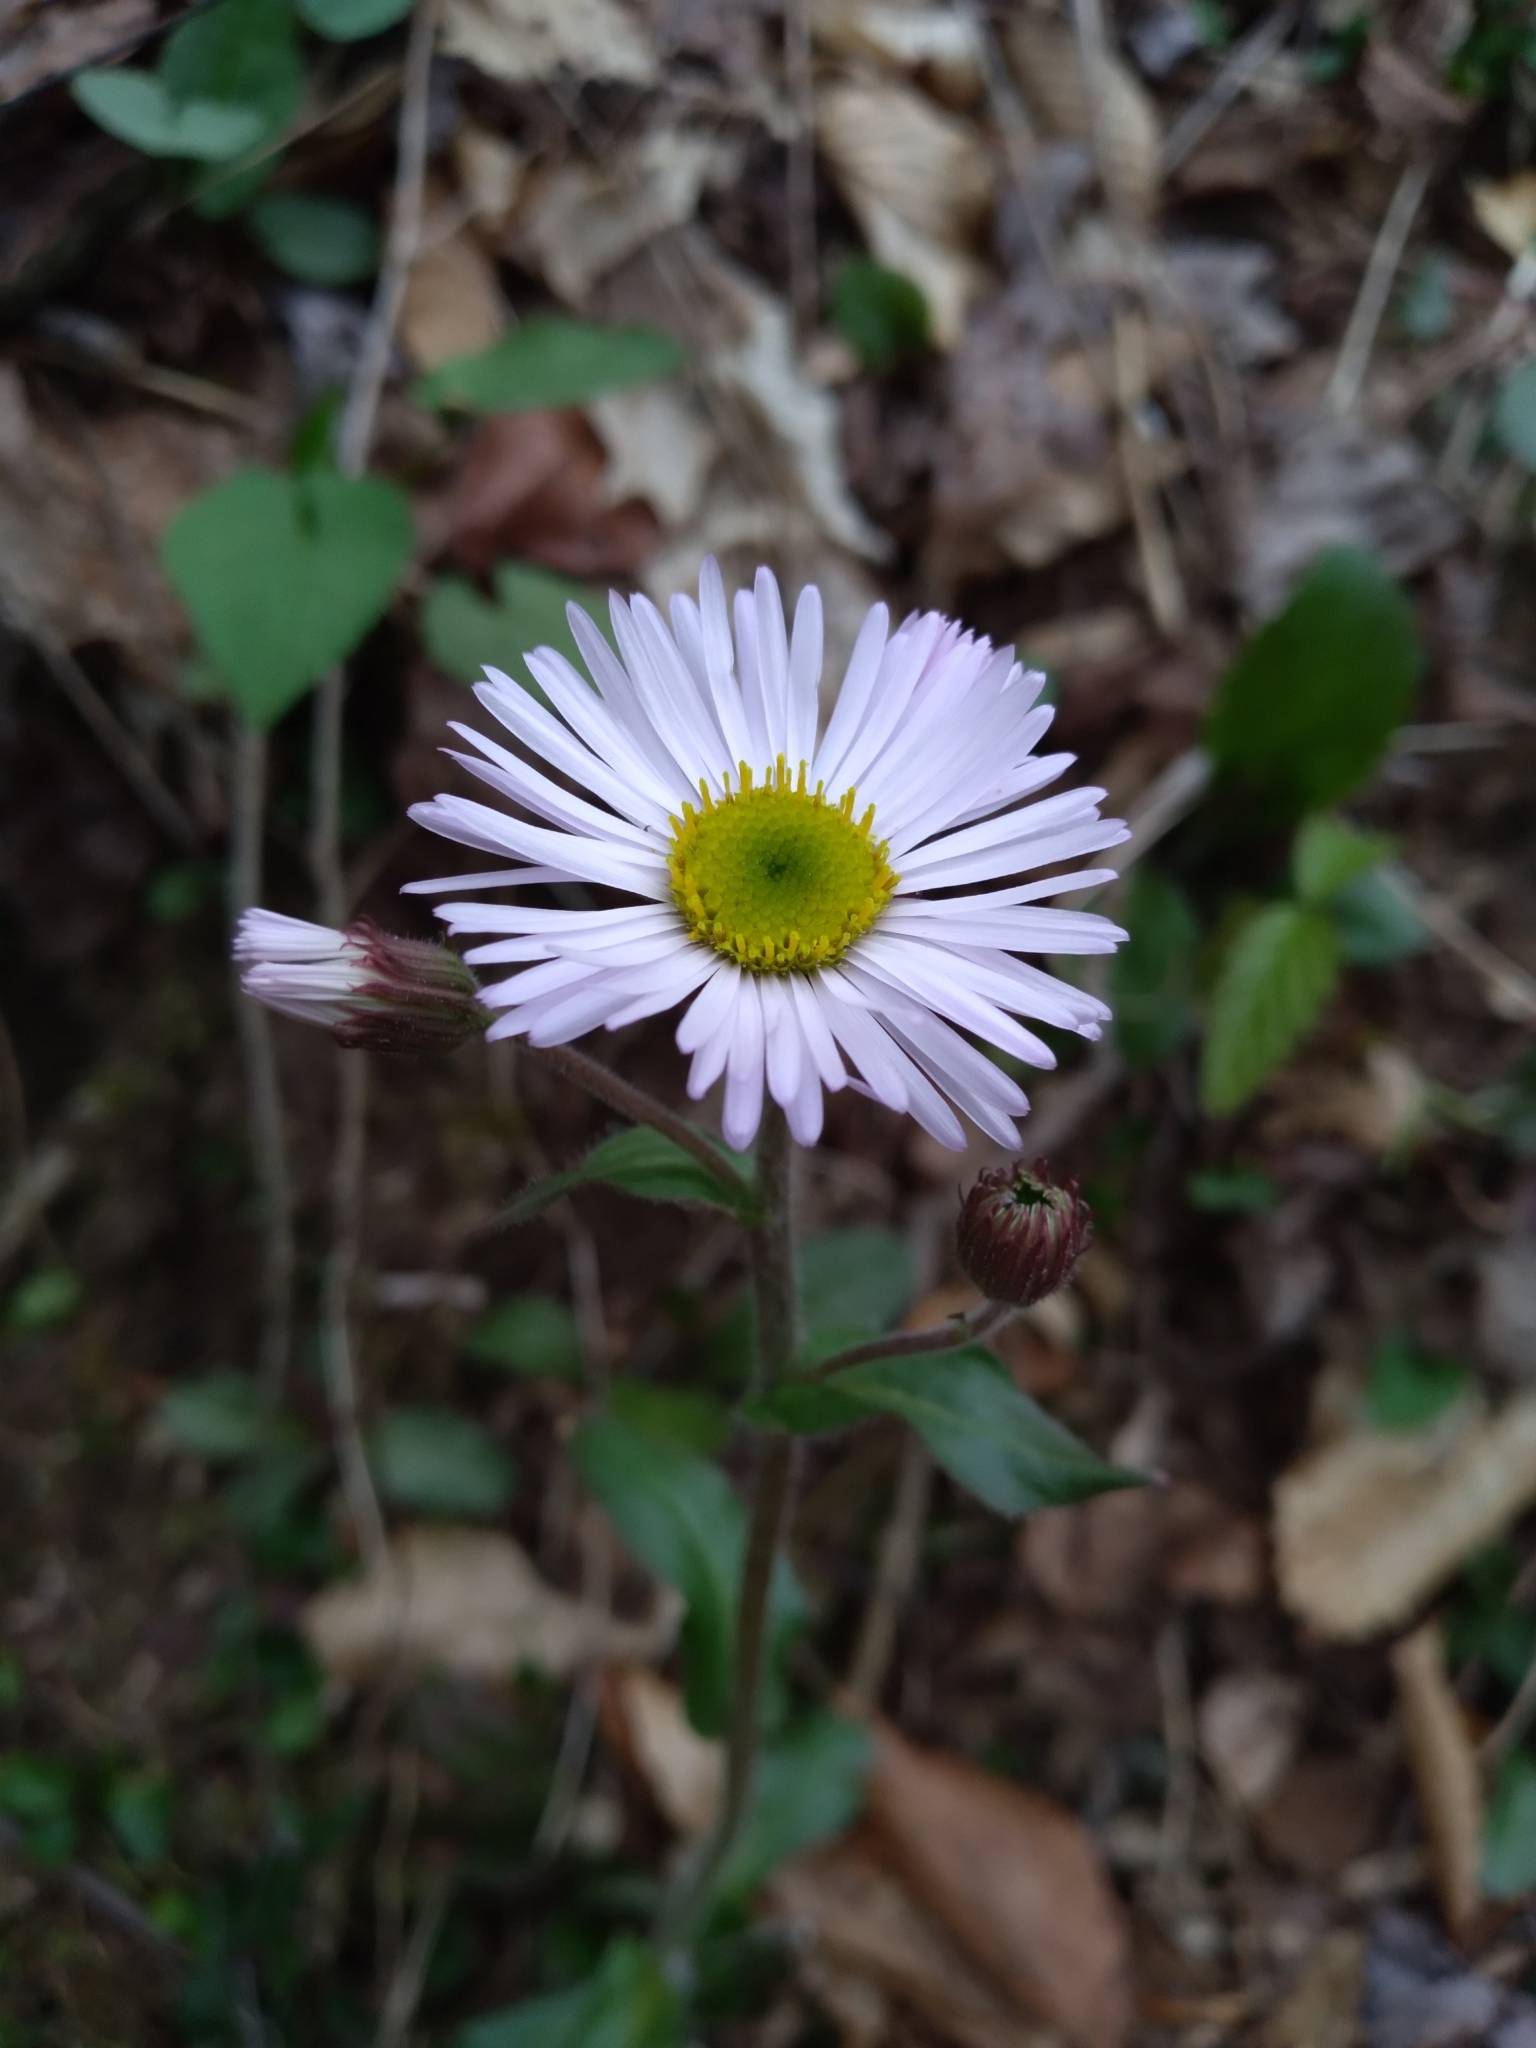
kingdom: Plantae
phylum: Tracheophyta
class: Magnoliopsida
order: Asterales
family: Asteraceae
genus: Erigeron
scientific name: Erigeron pulchellus
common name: Hairy fleabane
